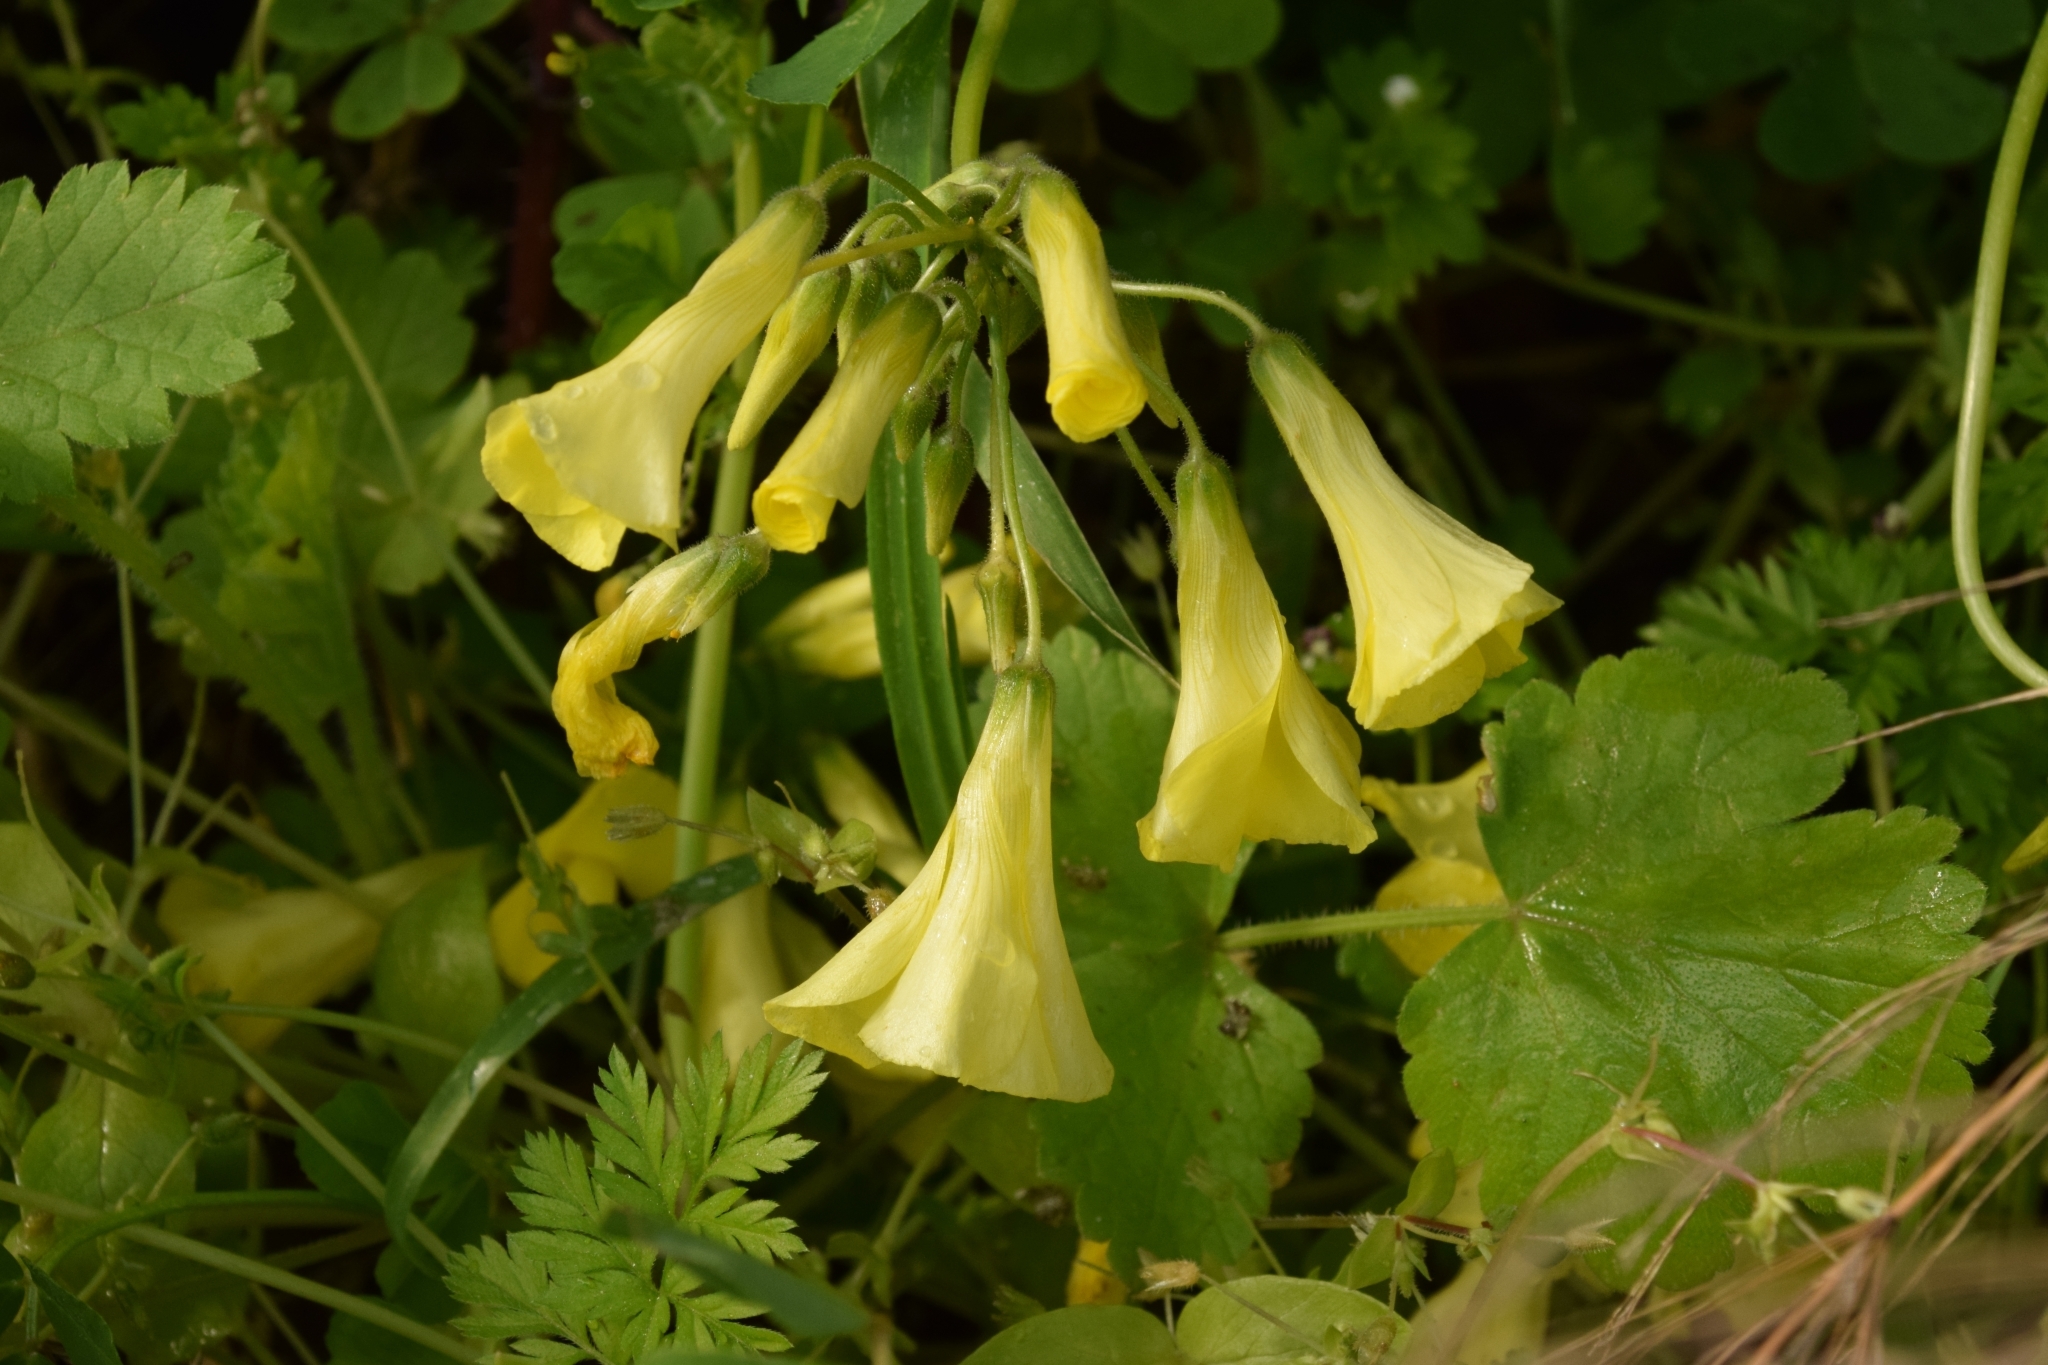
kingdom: Plantae
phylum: Tracheophyta
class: Magnoliopsida
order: Oxalidales
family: Oxalidaceae
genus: Oxalis
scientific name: Oxalis pes-caprae
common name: Bermuda-buttercup
